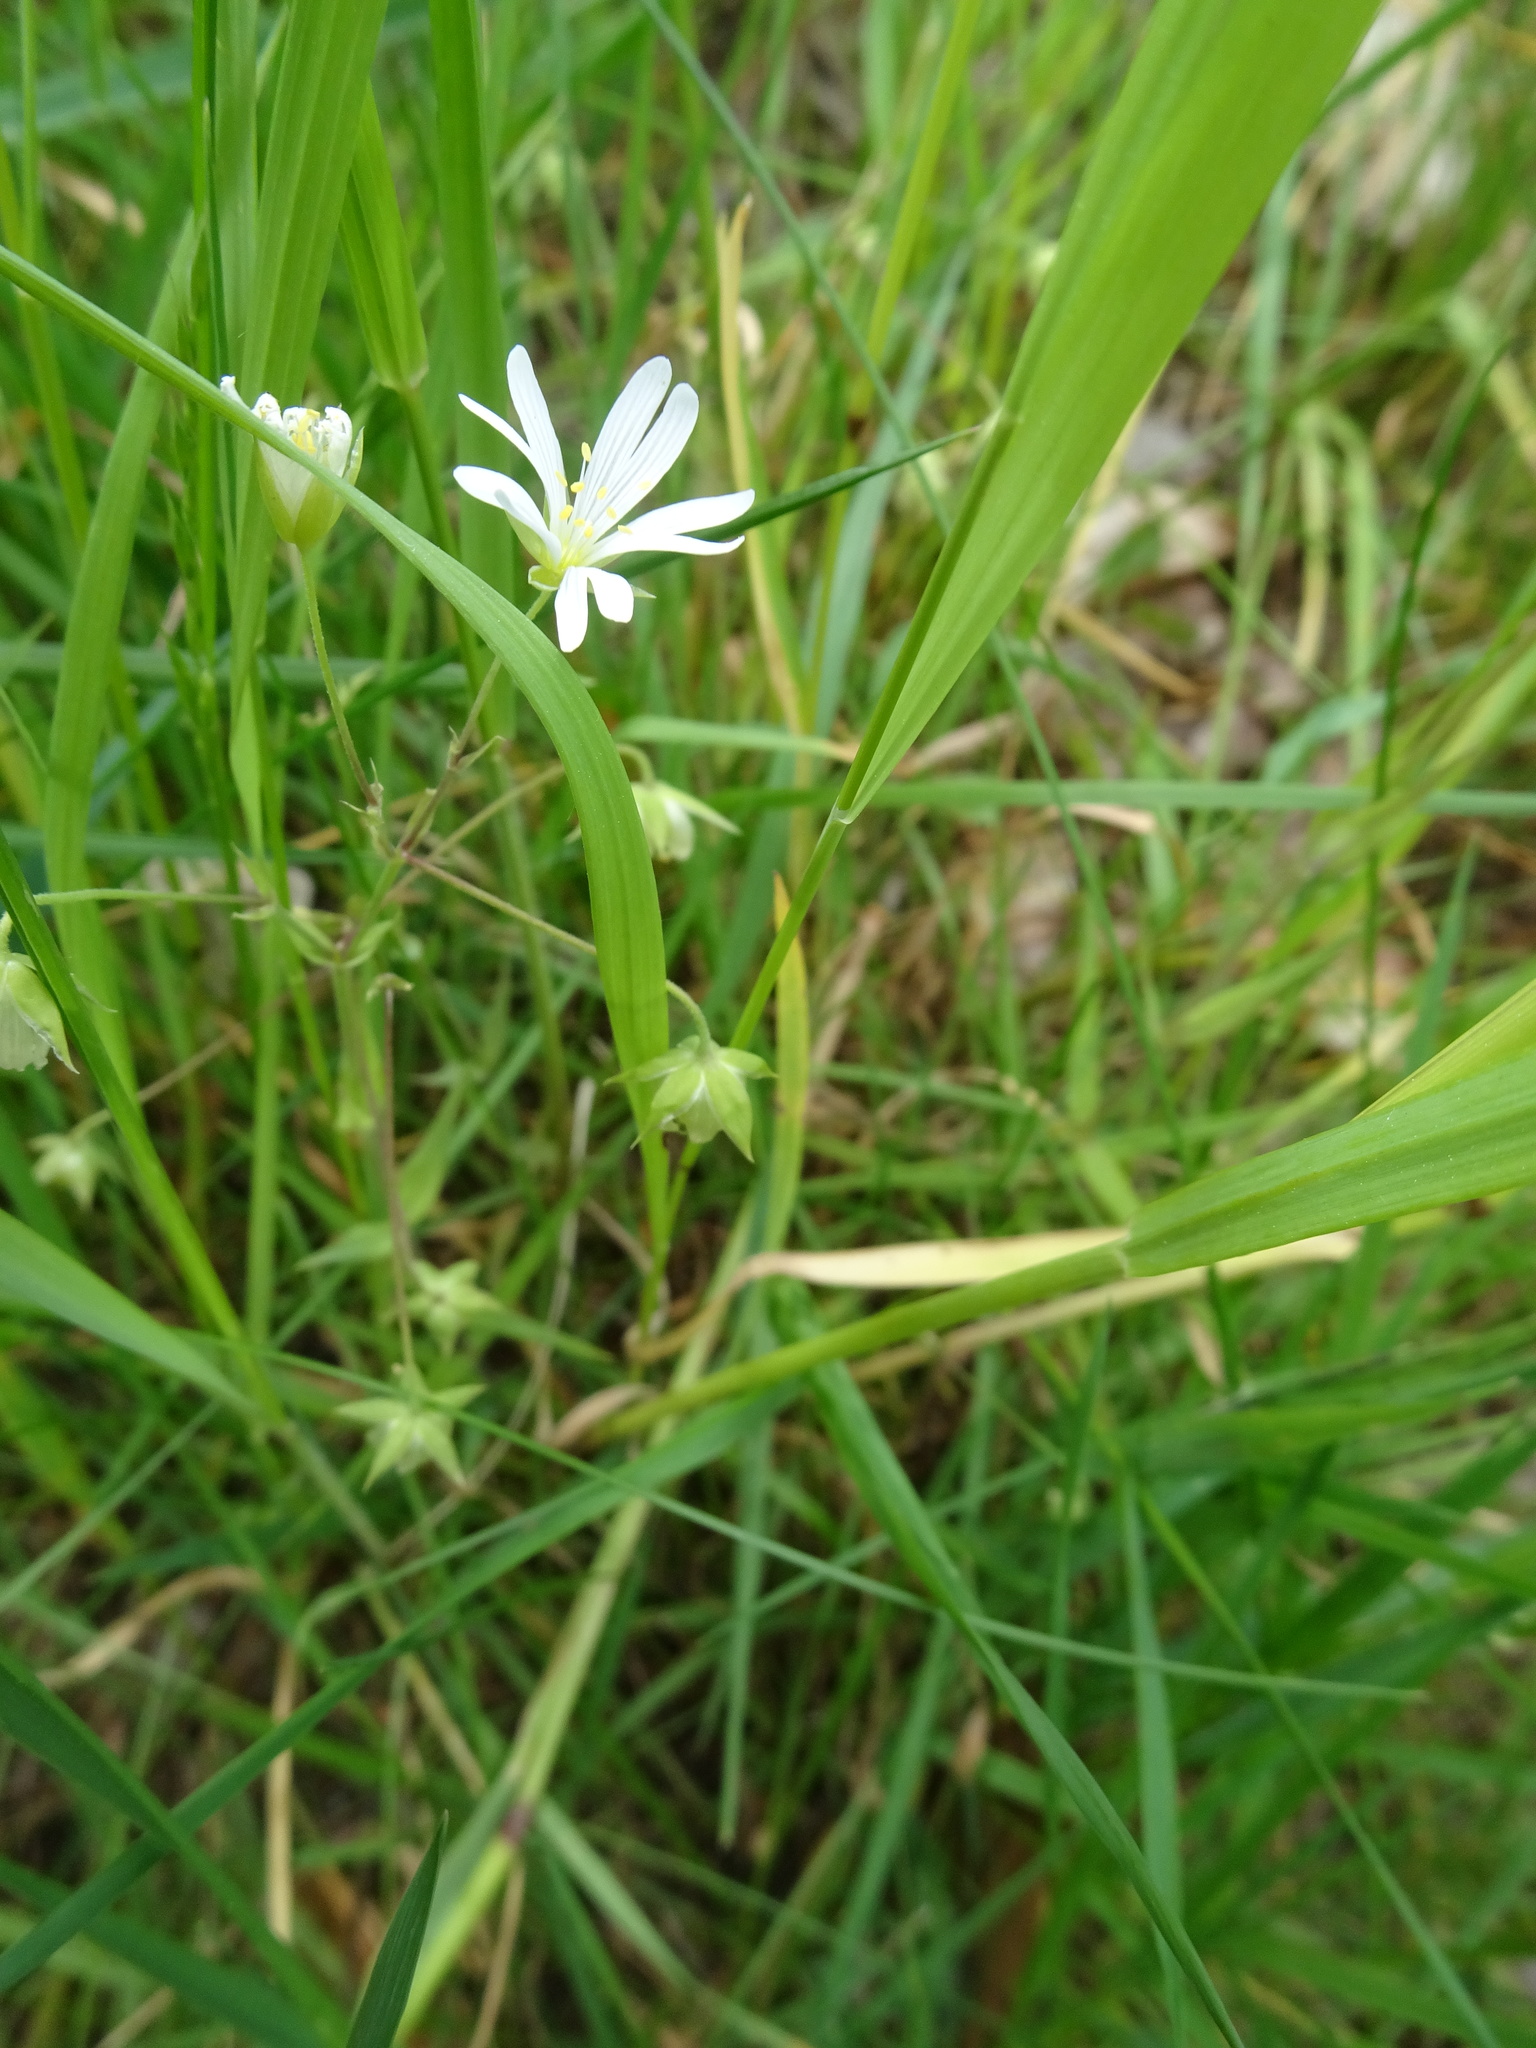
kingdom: Plantae
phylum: Tracheophyta
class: Magnoliopsida
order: Caryophyllales
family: Caryophyllaceae
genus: Stellaria
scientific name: Stellaria graminea
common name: Grass-like starwort
